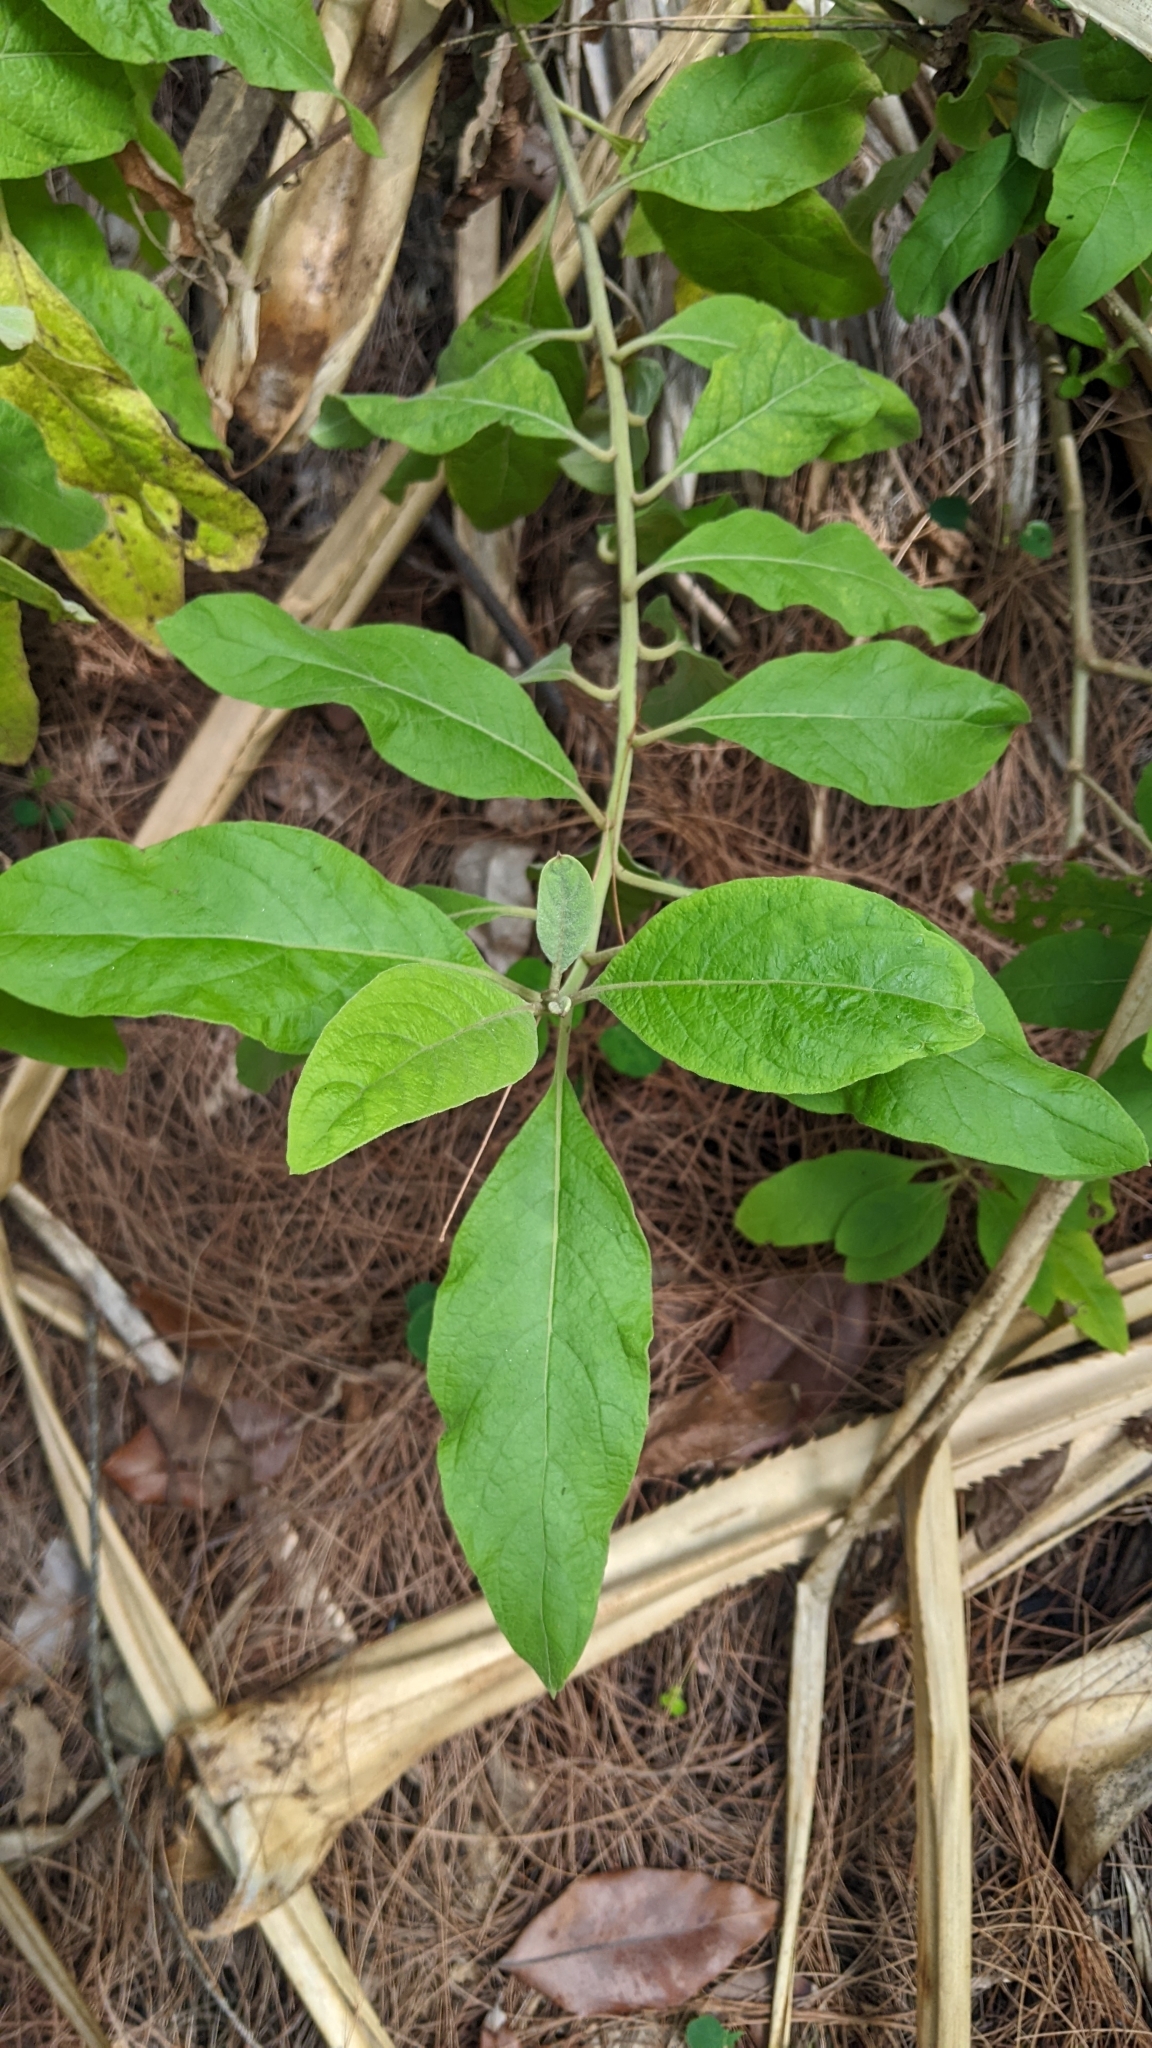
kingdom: Plantae
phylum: Tracheophyta
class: Magnoliopsida
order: Asterales
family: Asteraceae
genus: Pluchea
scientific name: Pluchea carolinensis
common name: Marsh fleabane
